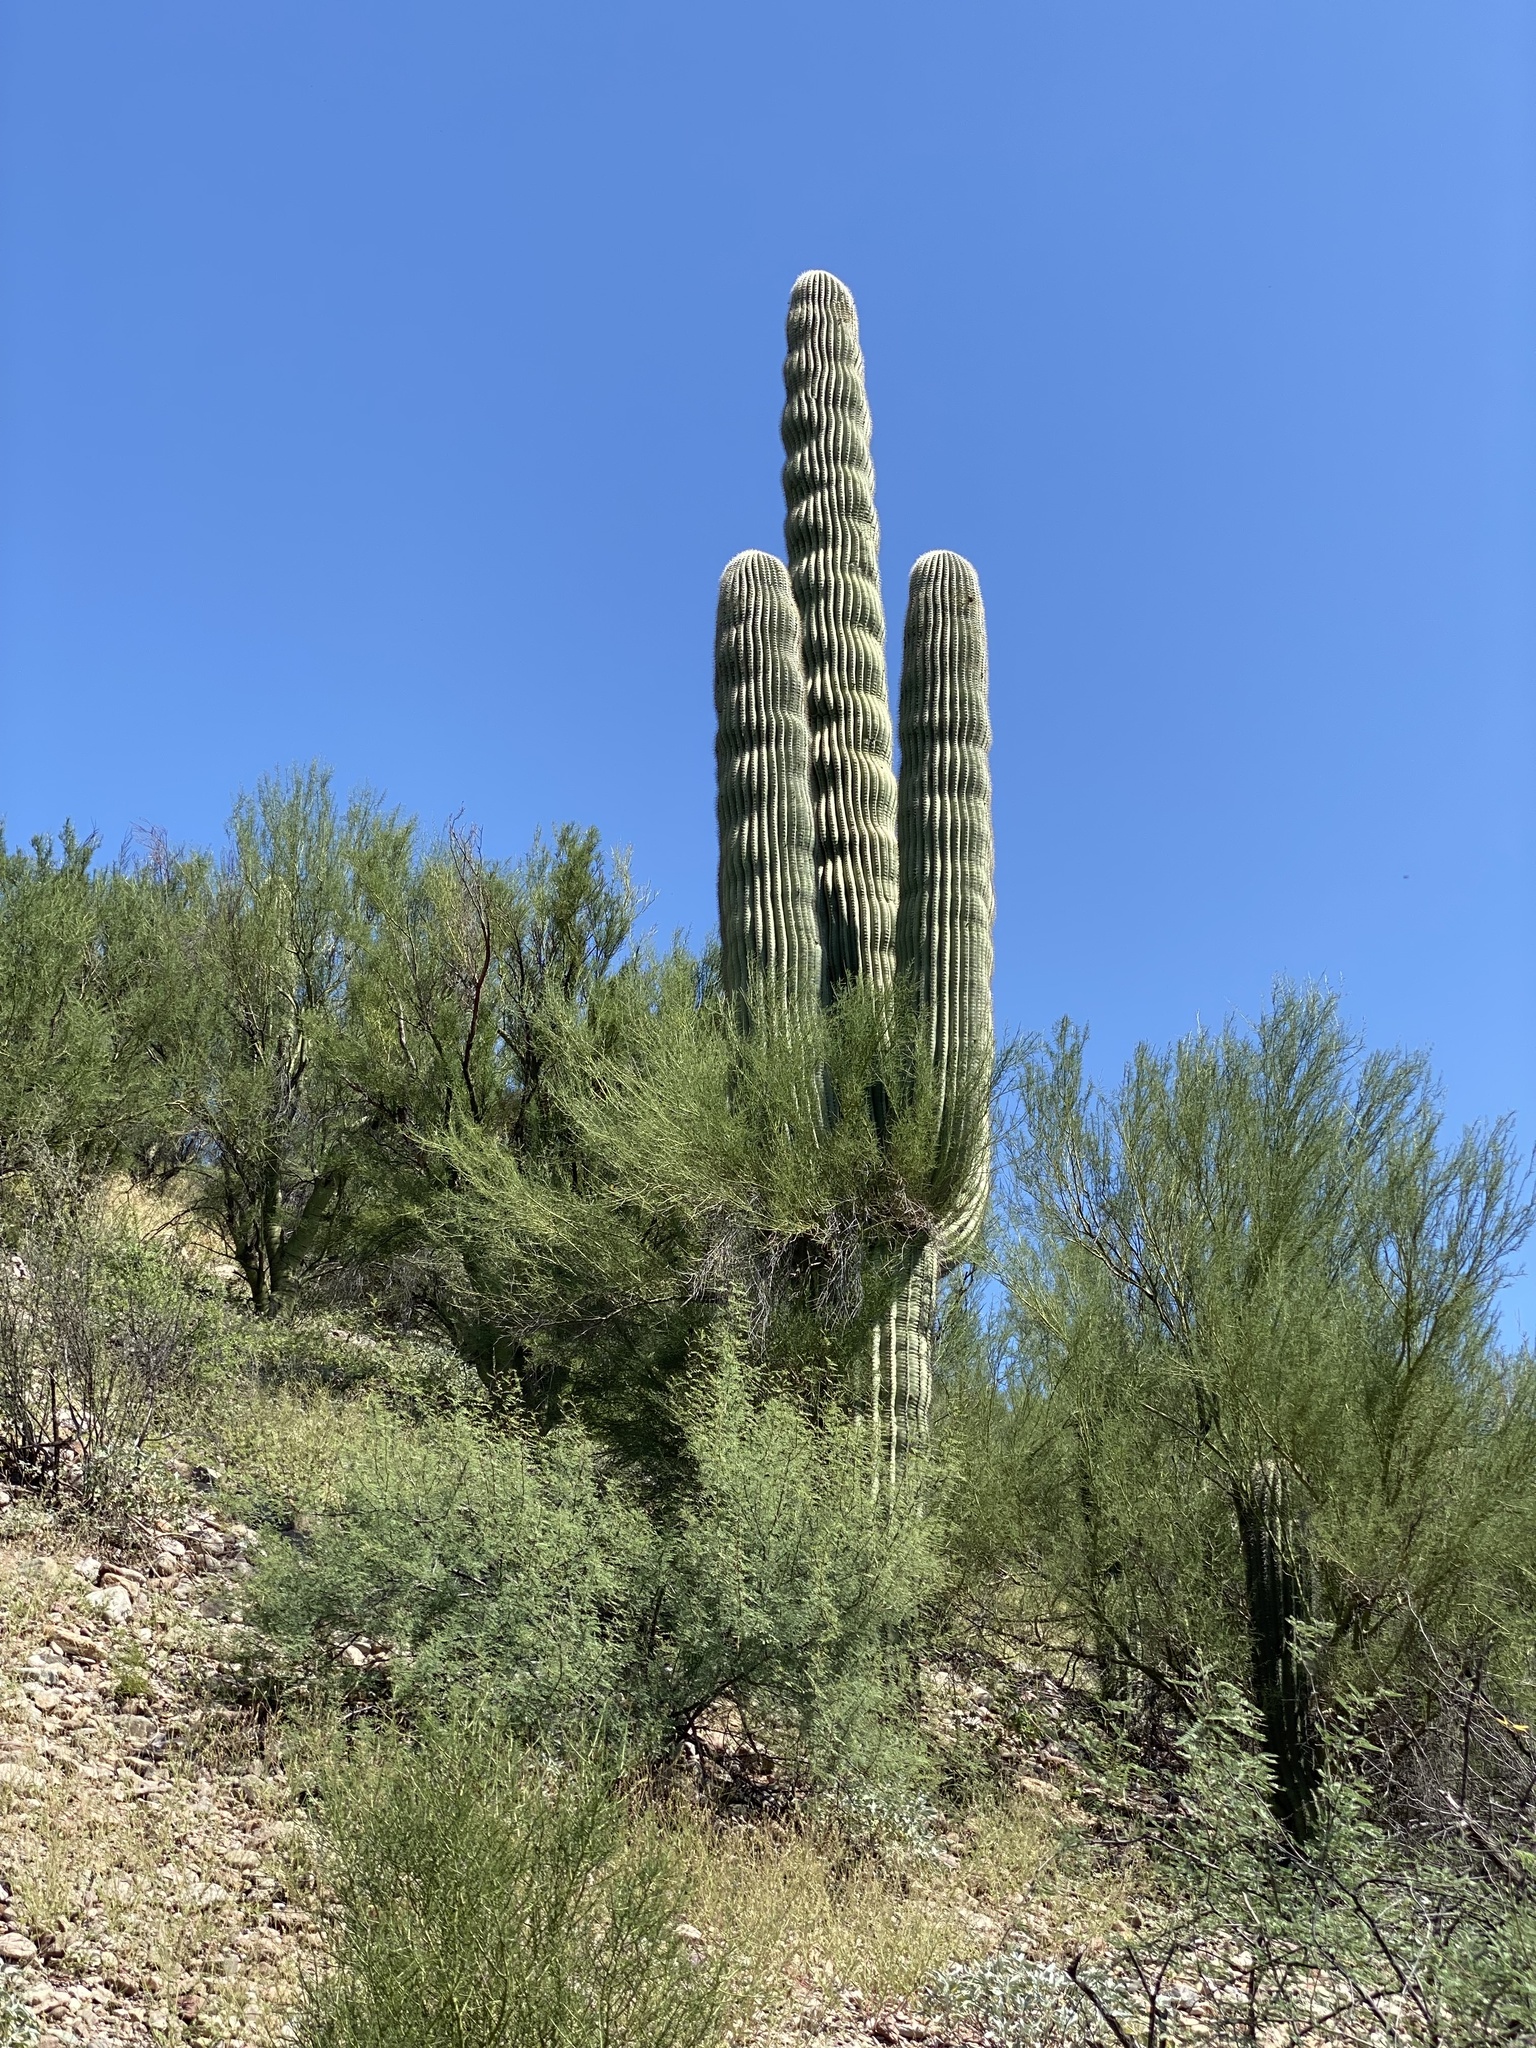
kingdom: Plantae
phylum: Tracheophyta
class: Magnoliopsida
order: Caryophyllales
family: Cactaceae
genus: Carnegiea
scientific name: Carnegiea gigantea
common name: Saguaro
